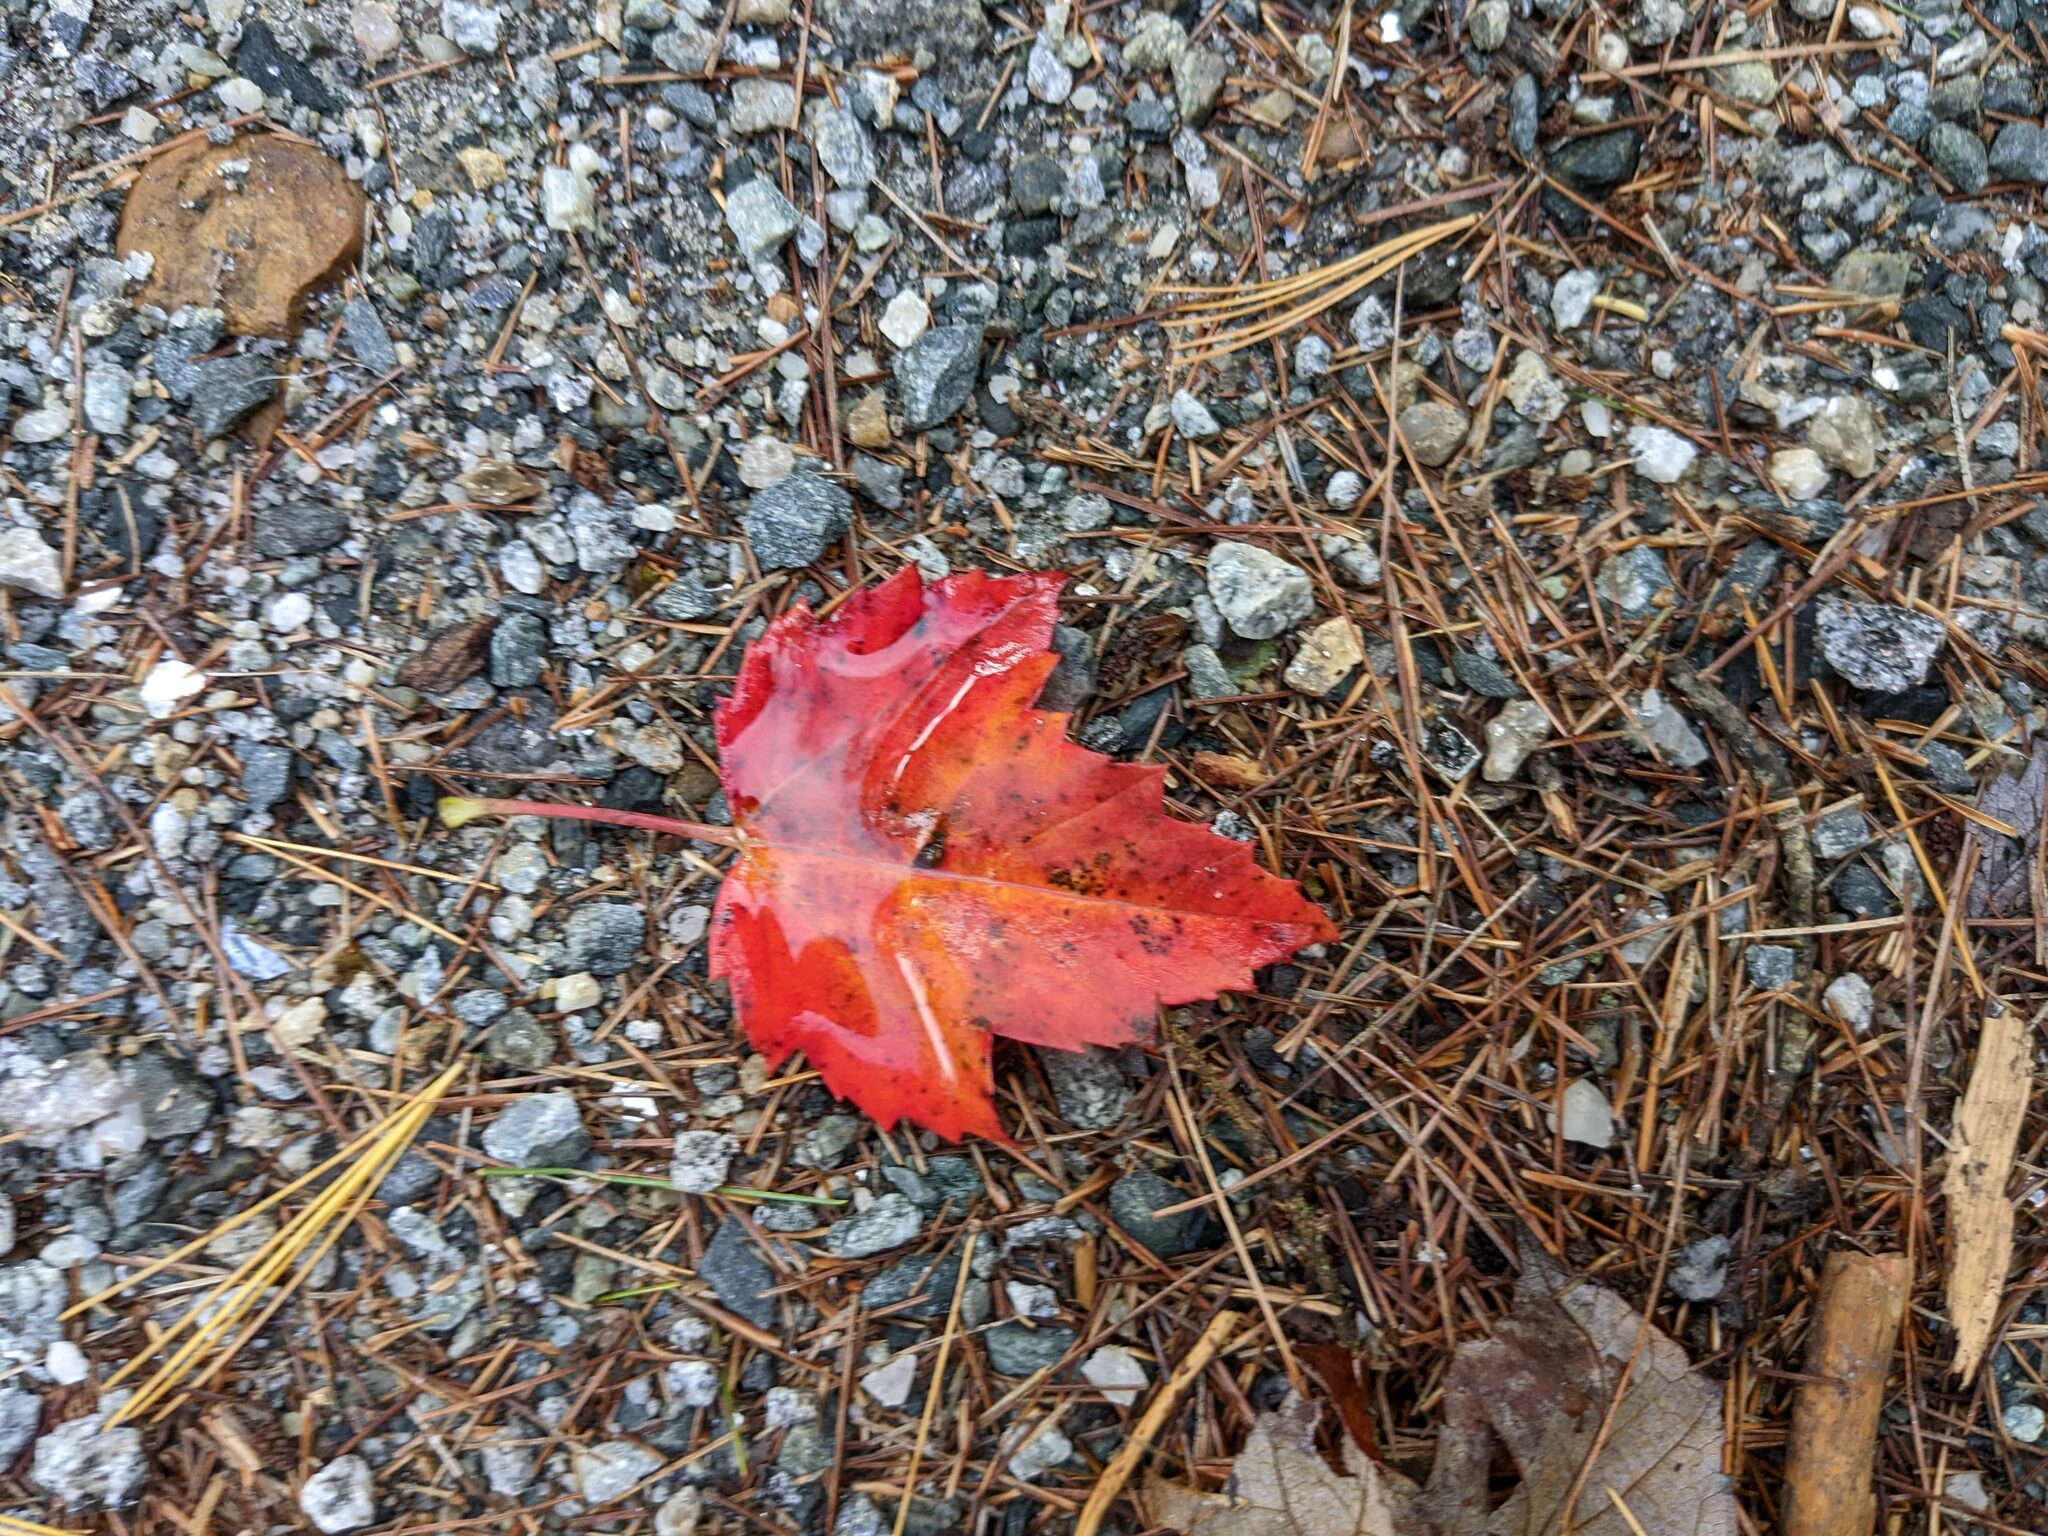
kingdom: Plantae
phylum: Tracheophyta
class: Magnoliopsida
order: Sapindales
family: Sapindaceae
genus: Acer
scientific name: Acer rubrum
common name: Red maple
